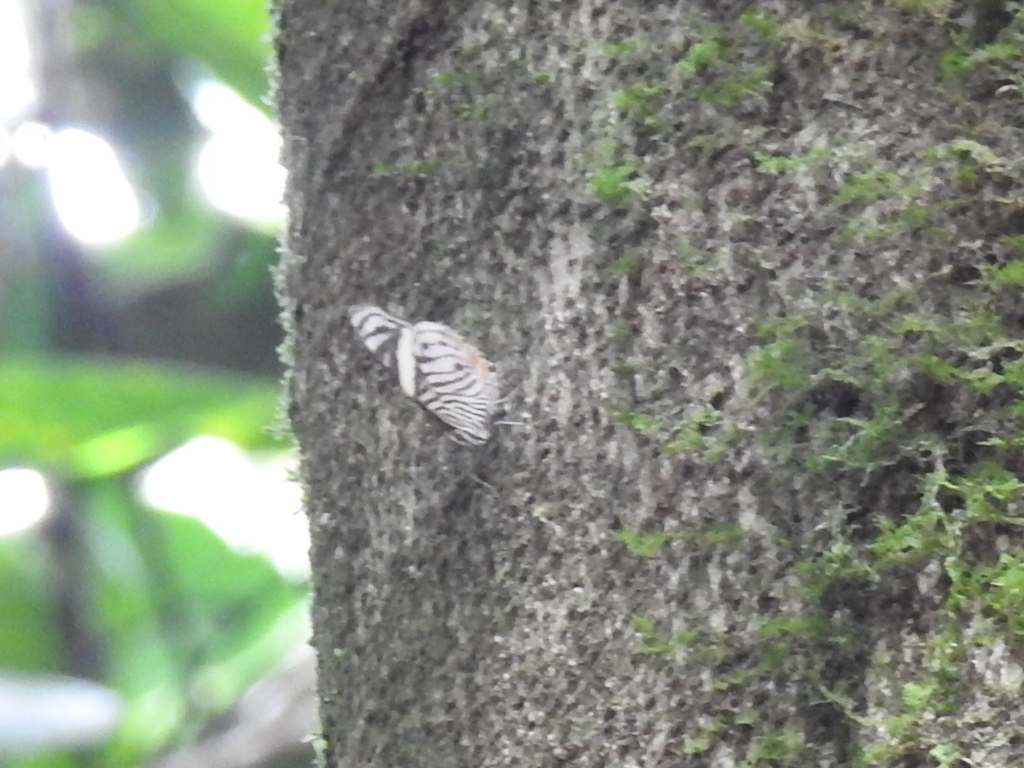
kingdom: Animalia
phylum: Arthropoda
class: Insecta
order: Lepidoptera
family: Nymphalidae
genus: Callizona
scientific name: Callizona acesta
